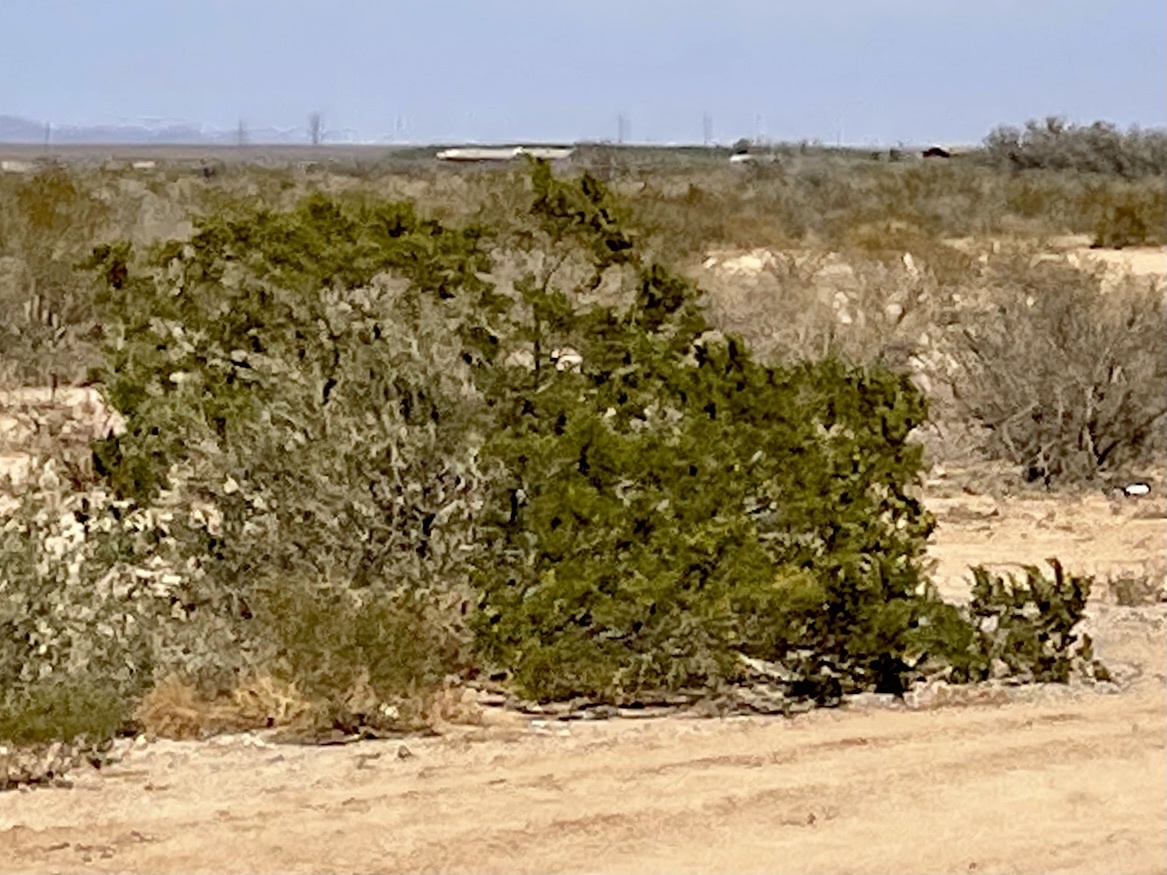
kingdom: Plantae
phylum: Tracheophyta
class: Magnoliopsida
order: Zygophyllales
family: Zygophyllaceae
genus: Larrea
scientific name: Larrea tridentata
